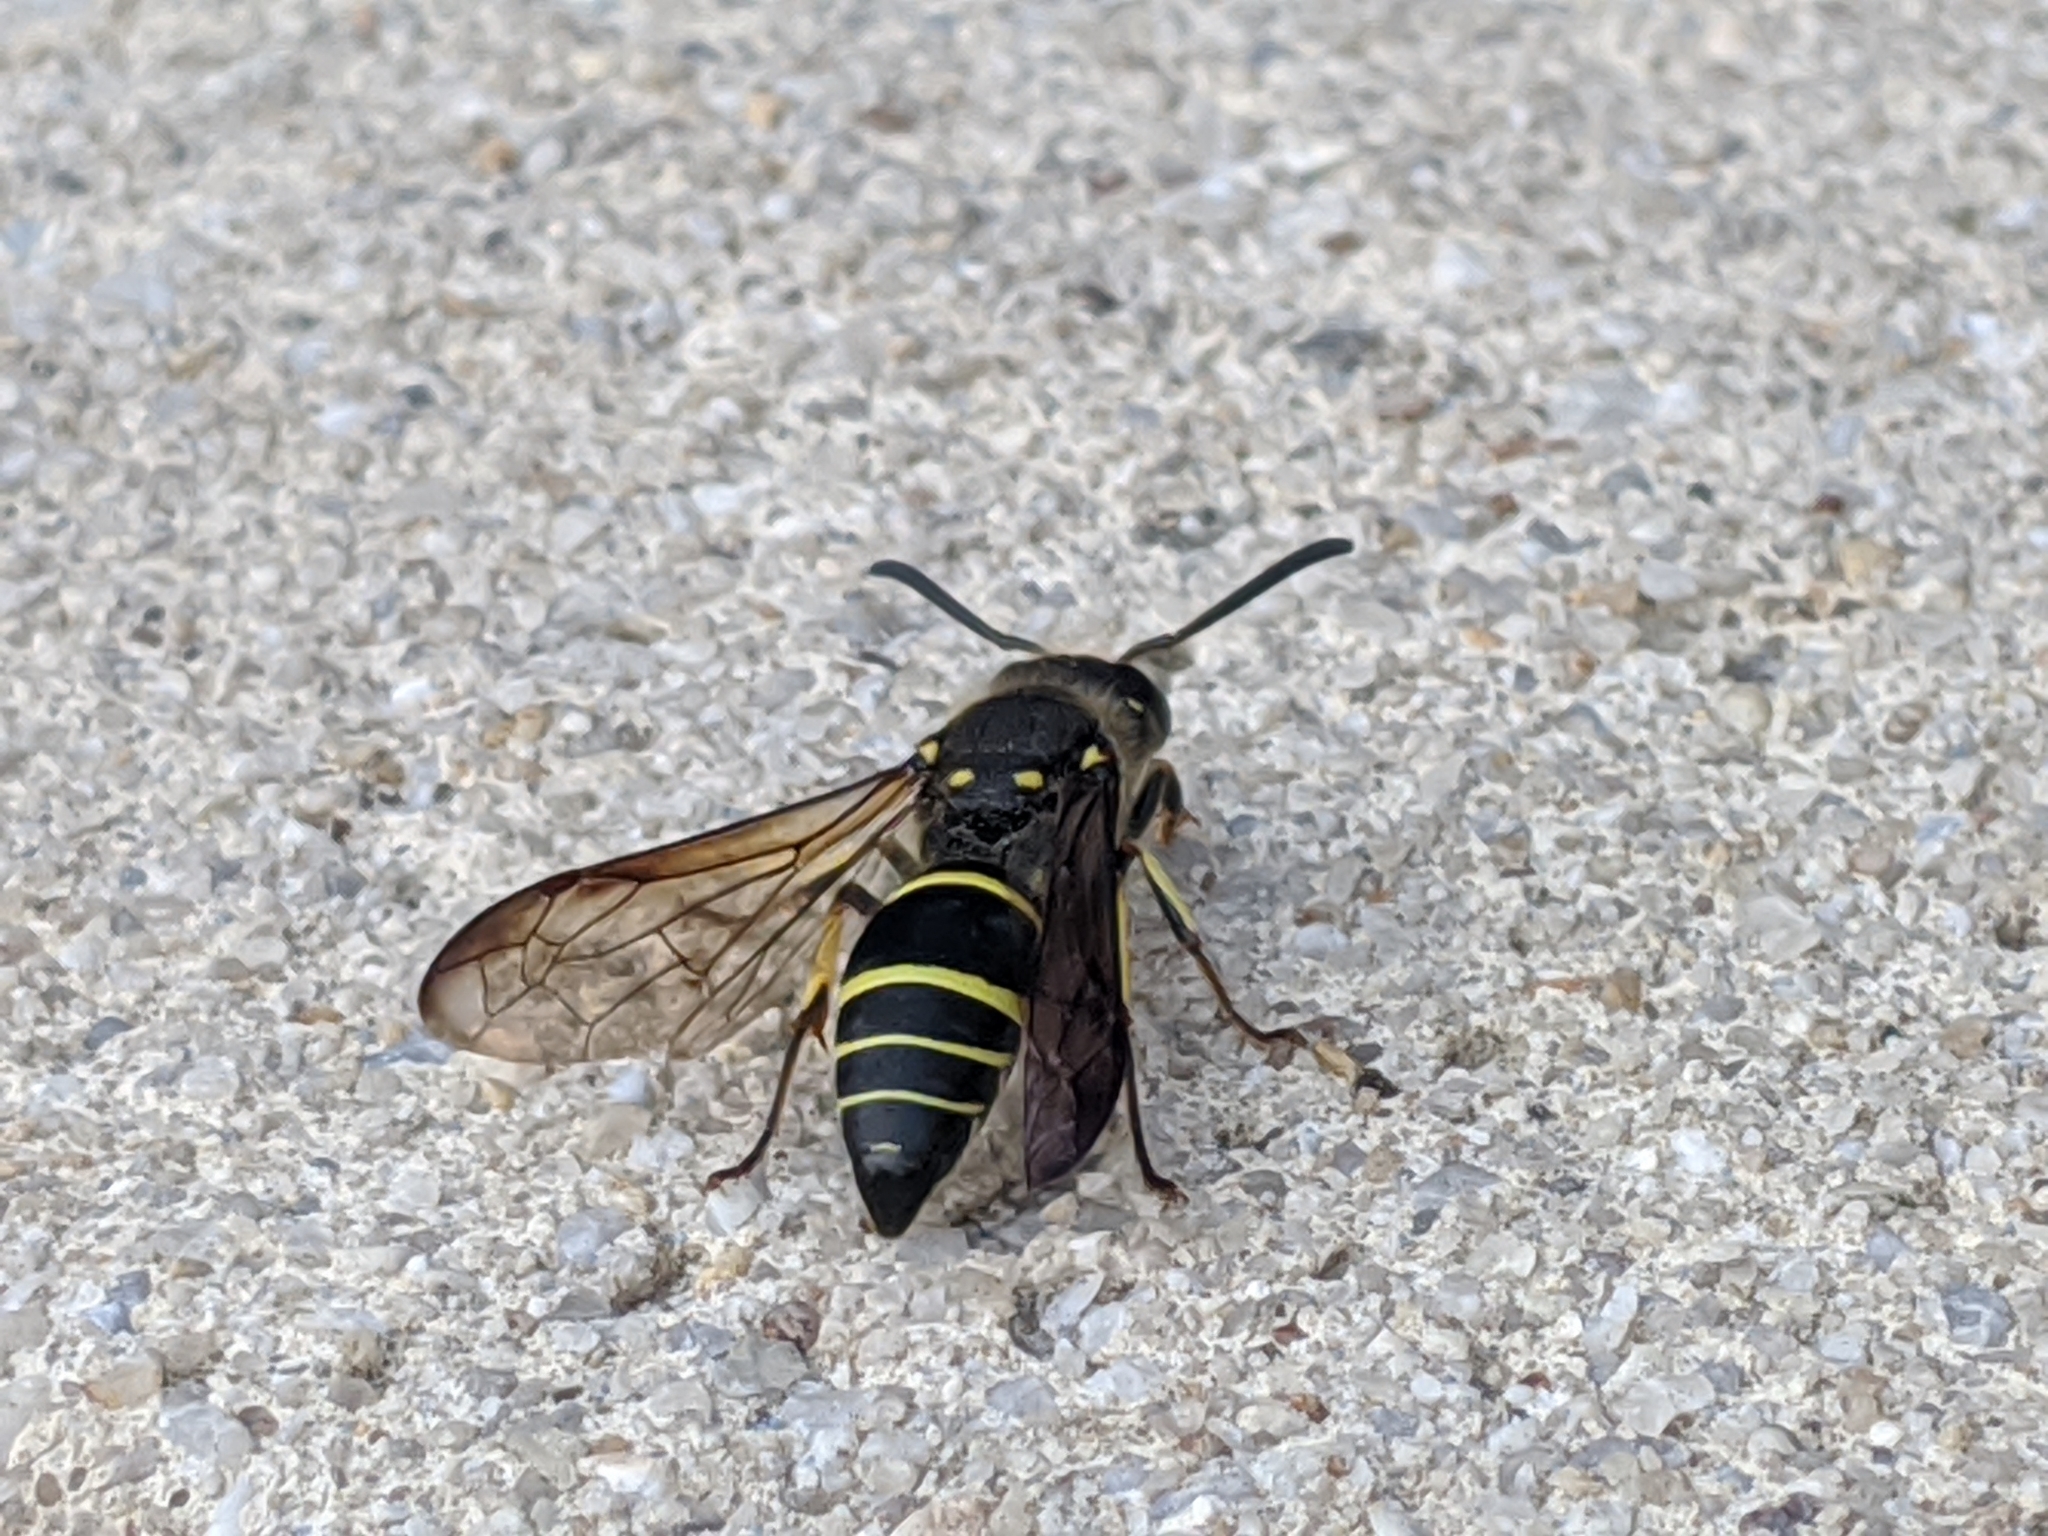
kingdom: Animalia
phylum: Arthropoda
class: Insecta
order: Hymenoptera
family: Vespidae
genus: Ancistrocerus
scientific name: Ancistrocerus
